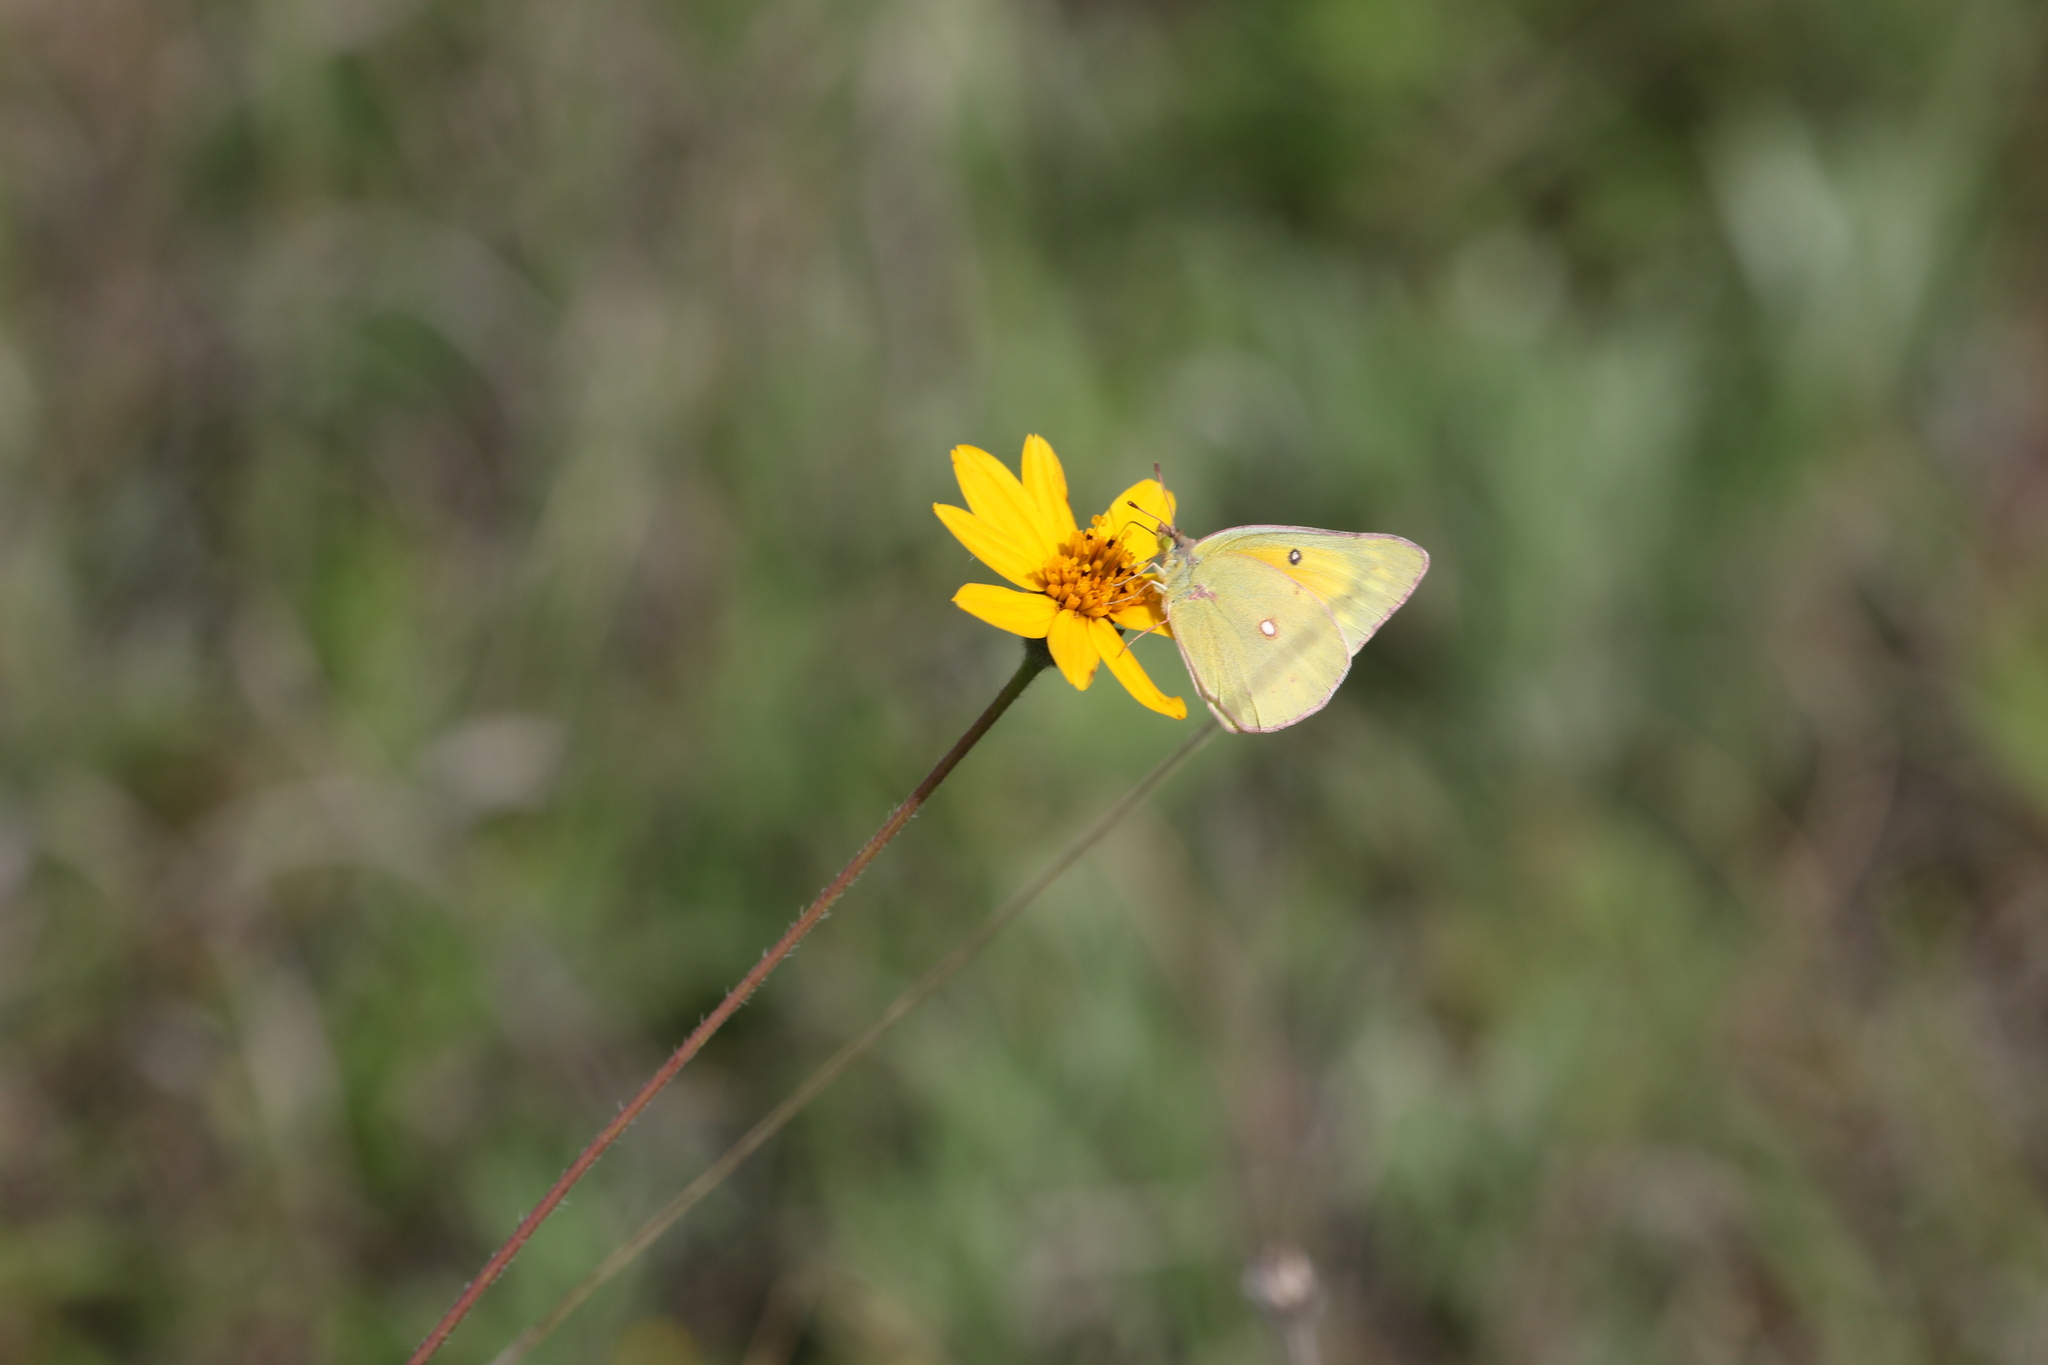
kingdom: Animalia
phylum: Arthropoda
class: Insecta
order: Lepidoptera
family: Pieridae
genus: Colias
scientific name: Colias eurytheme
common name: Alfalfa butterfly
